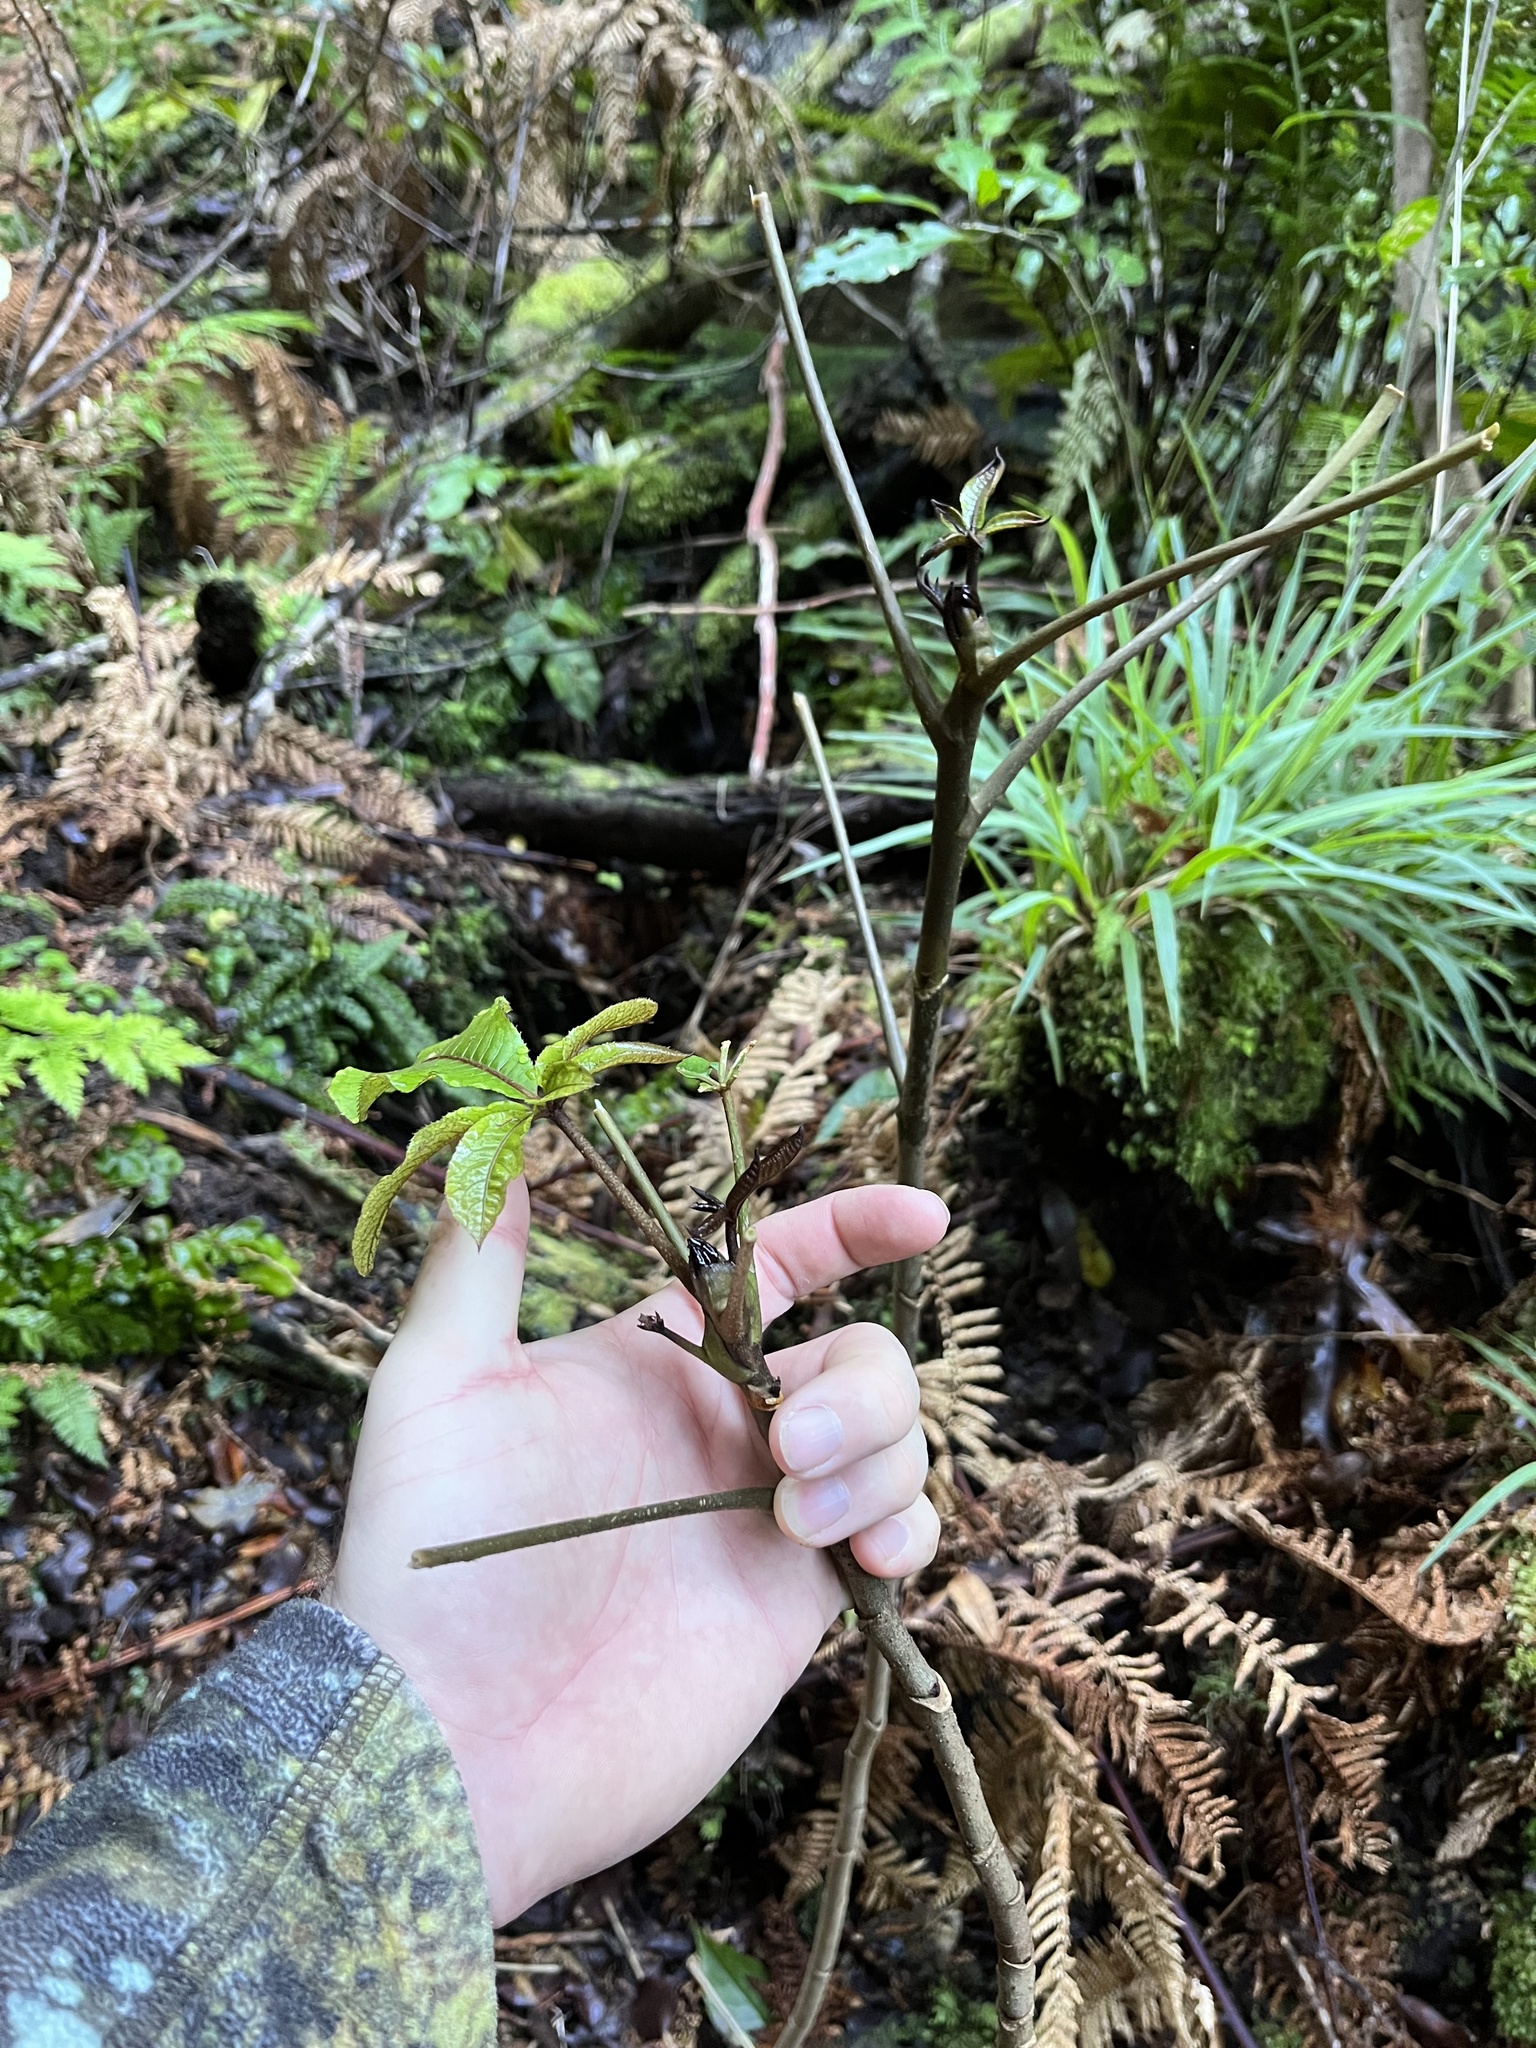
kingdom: Plantae
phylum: Tracheophyta
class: Magnoliopsida
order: Apiales
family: Araliaceae
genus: Schefflera
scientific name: Schefflera digitata
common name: Pate
